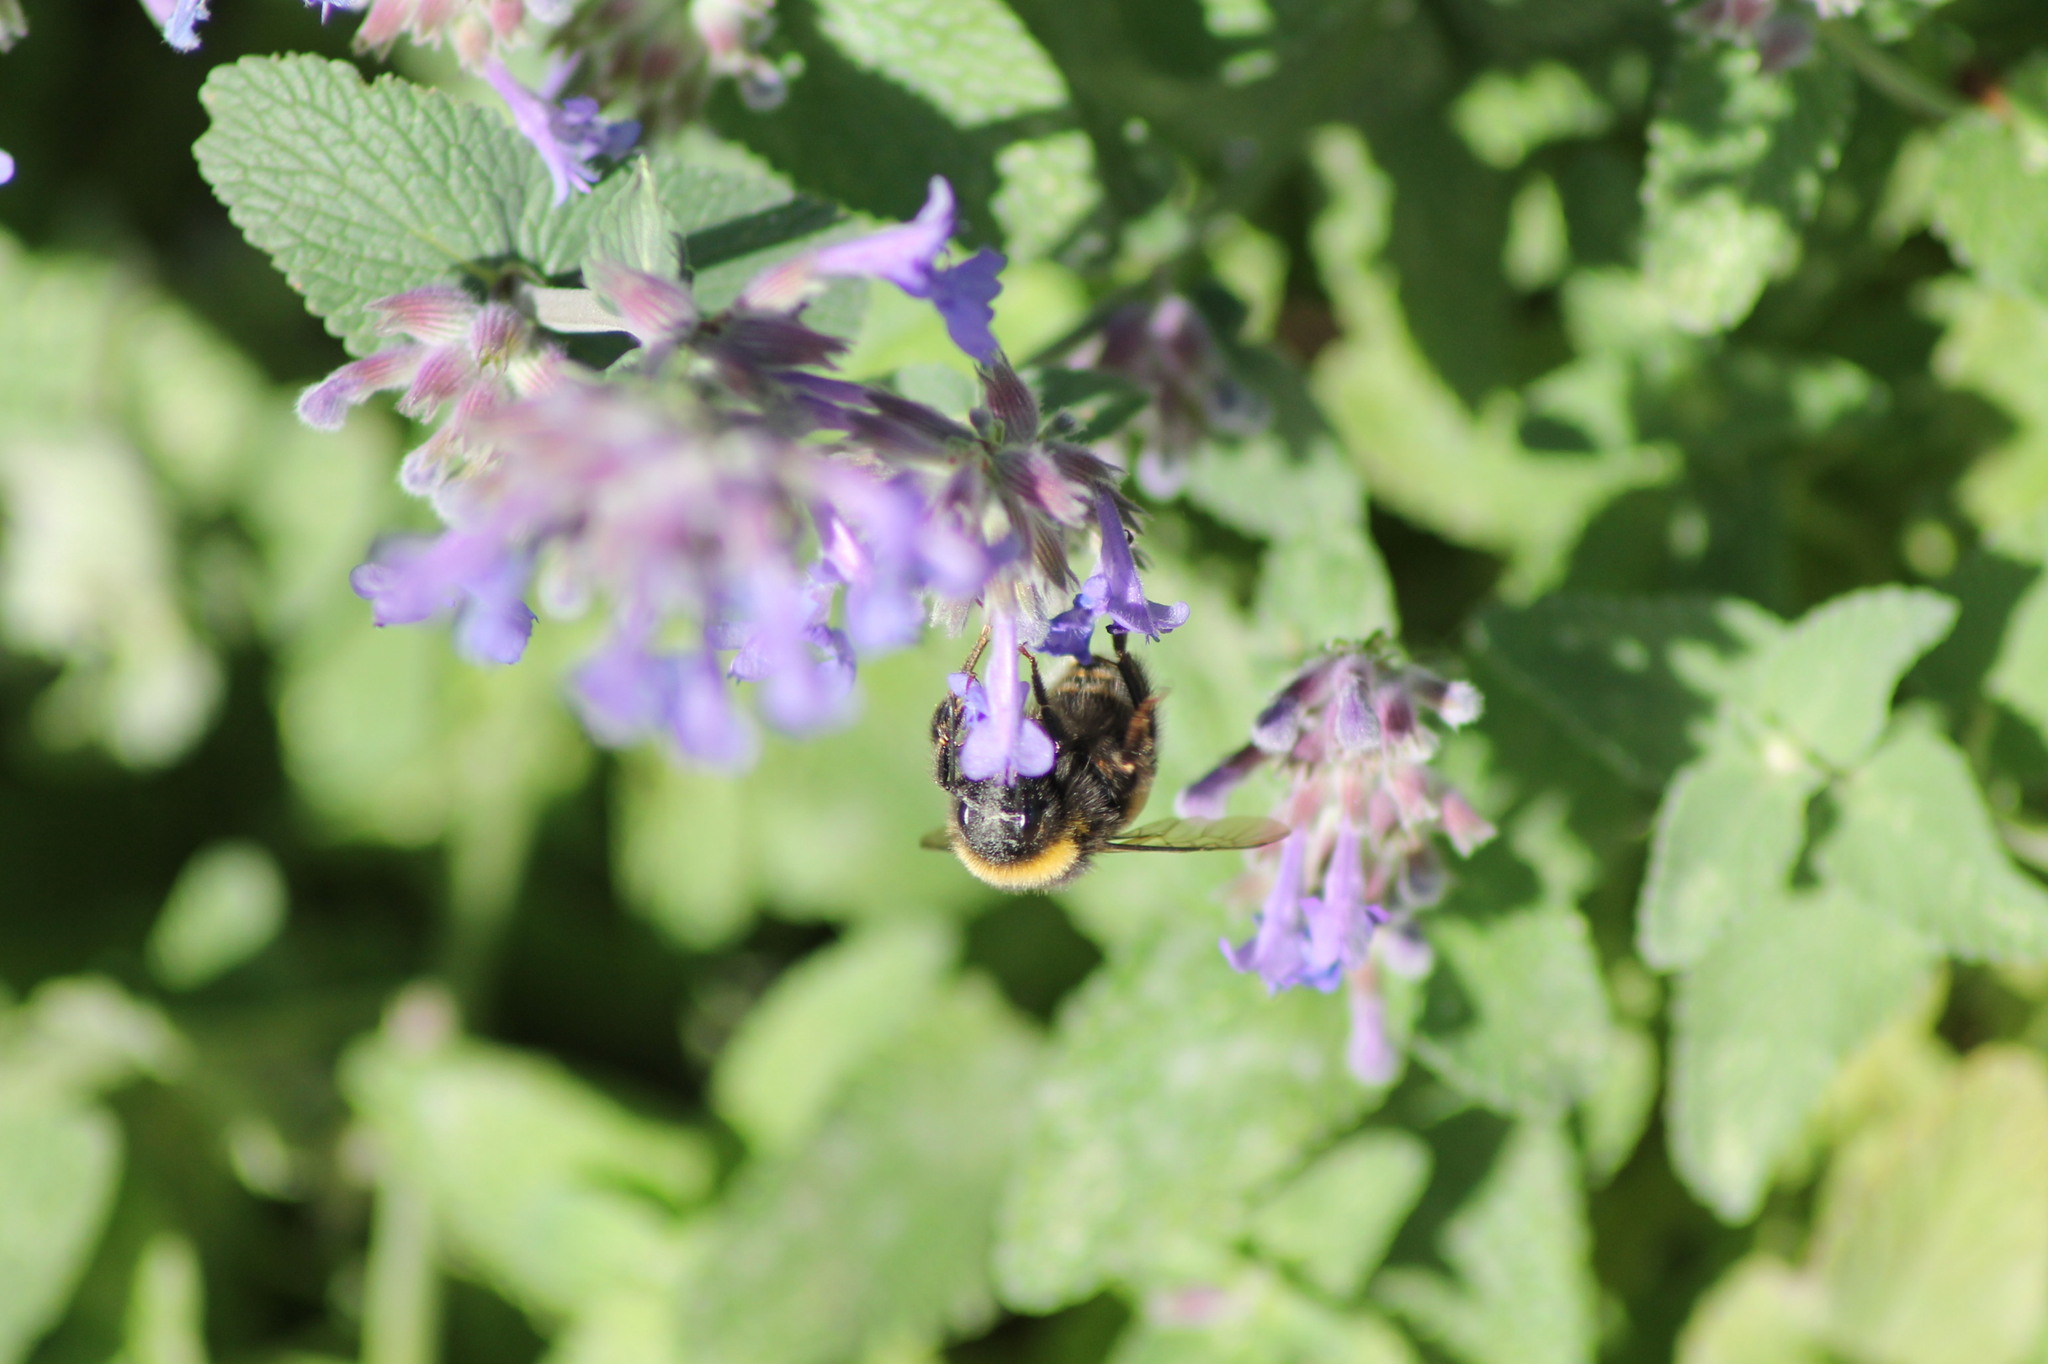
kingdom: Animalia
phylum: Arthropoda
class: Insecta
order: Hymenoptera
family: Apidae
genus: Bombus
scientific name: Bombus terrestris
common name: Buff-tailed bumblebee
